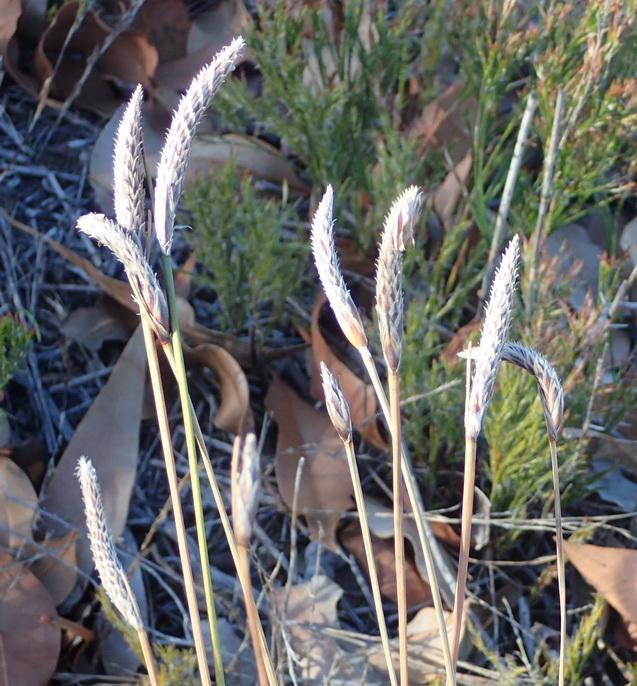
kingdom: Plantae
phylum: Tracheophyta
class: Liliopsida
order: Poales
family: Cyperaceae
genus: Ficinia
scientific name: Ficinia deusta
